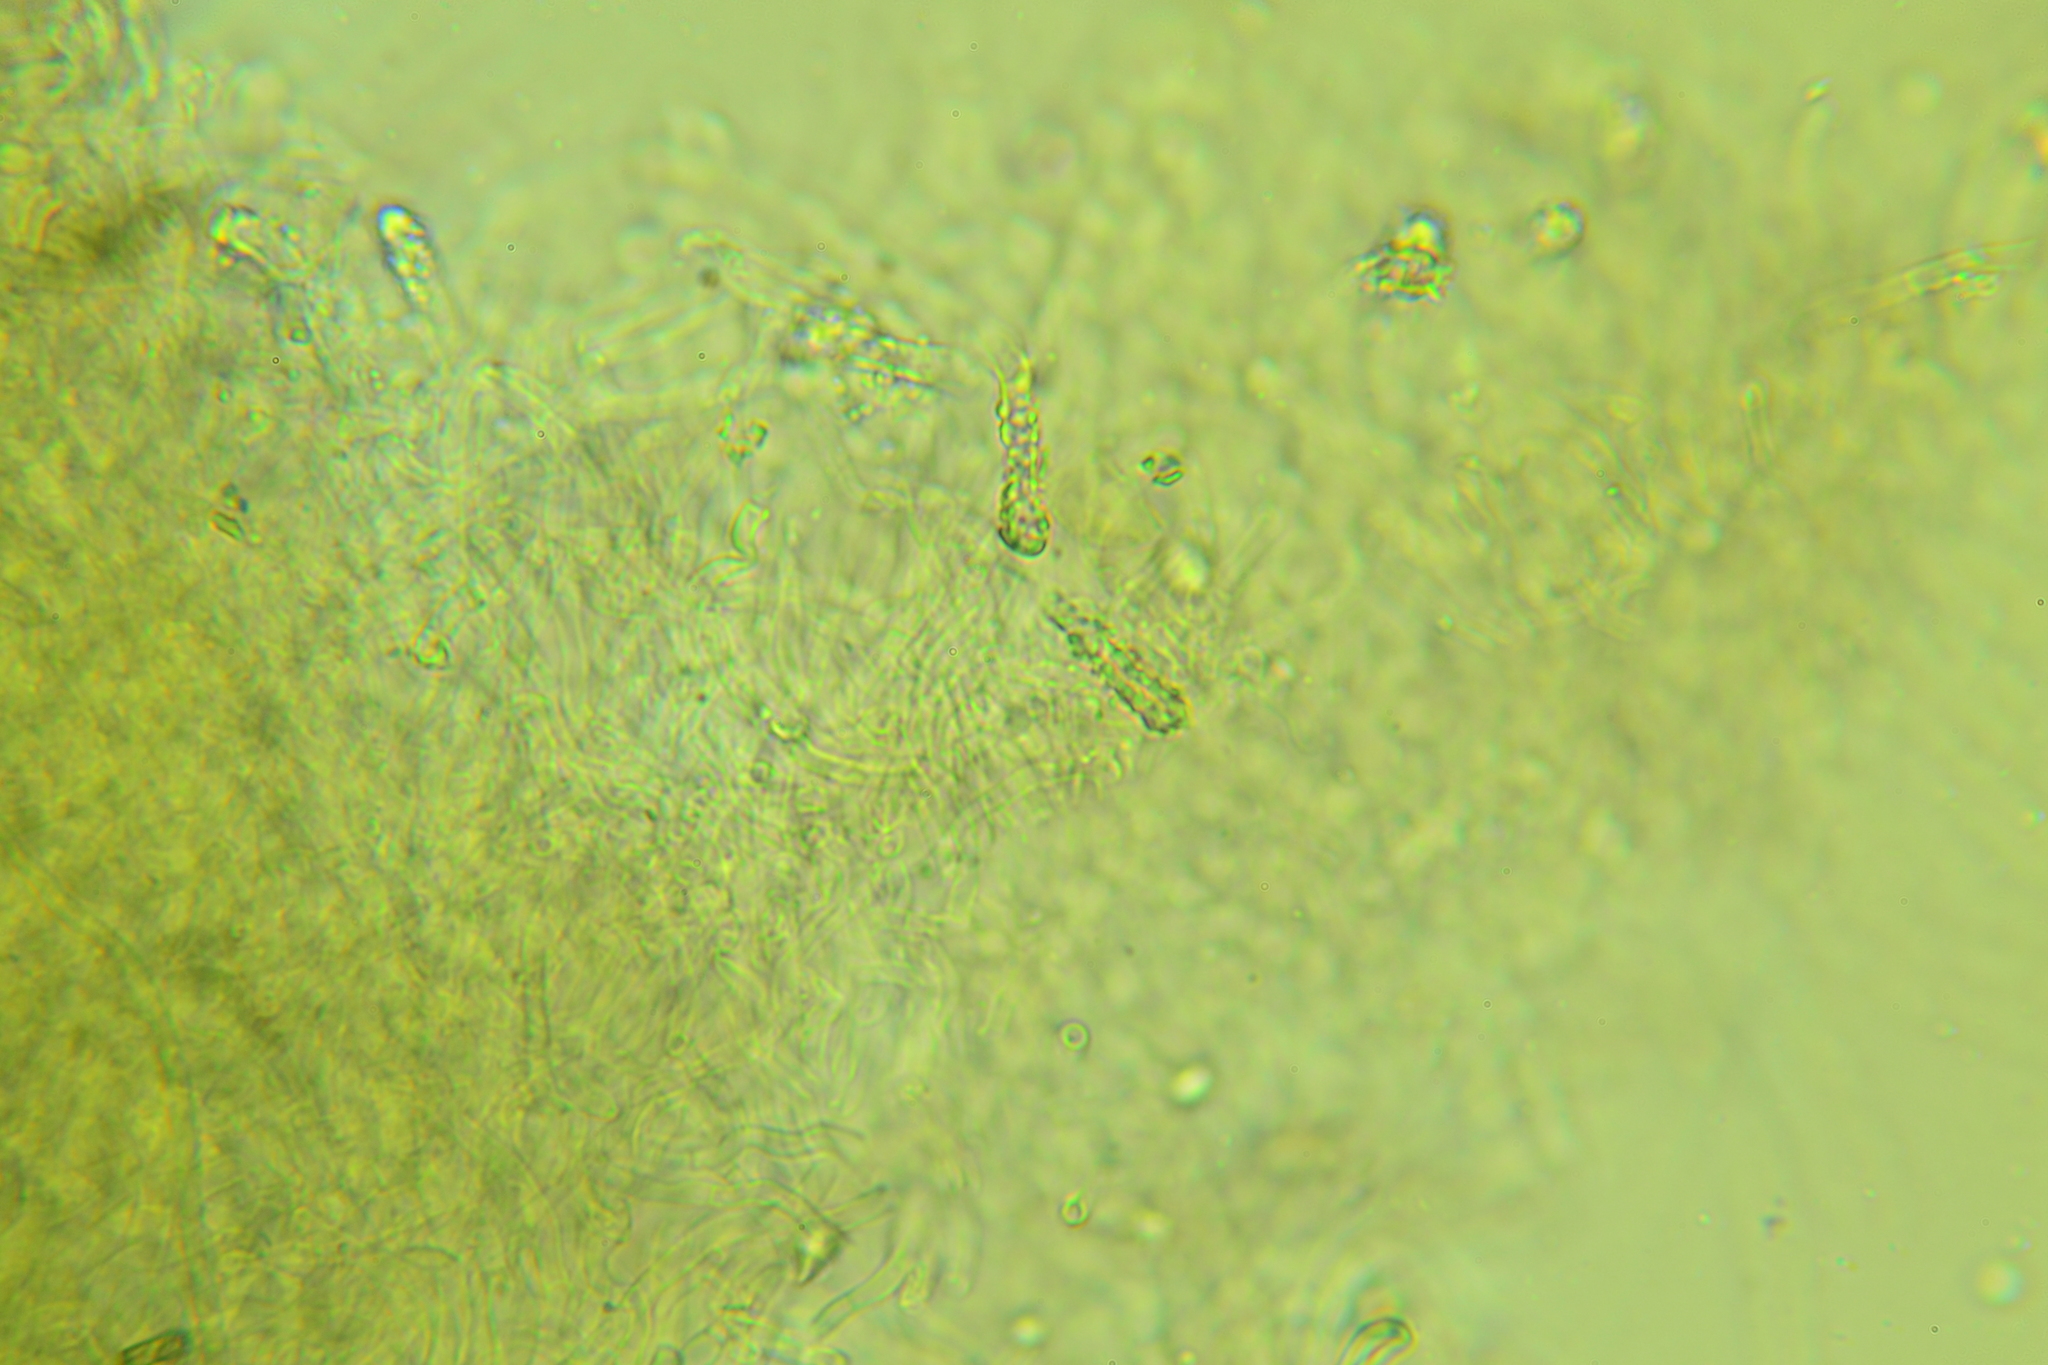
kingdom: Fungi
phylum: Basidiomycota
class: Agaricomycetes
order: Hymenochaetales
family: Oxyporaceae
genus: Oxyporus
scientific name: Oxyporus similis
